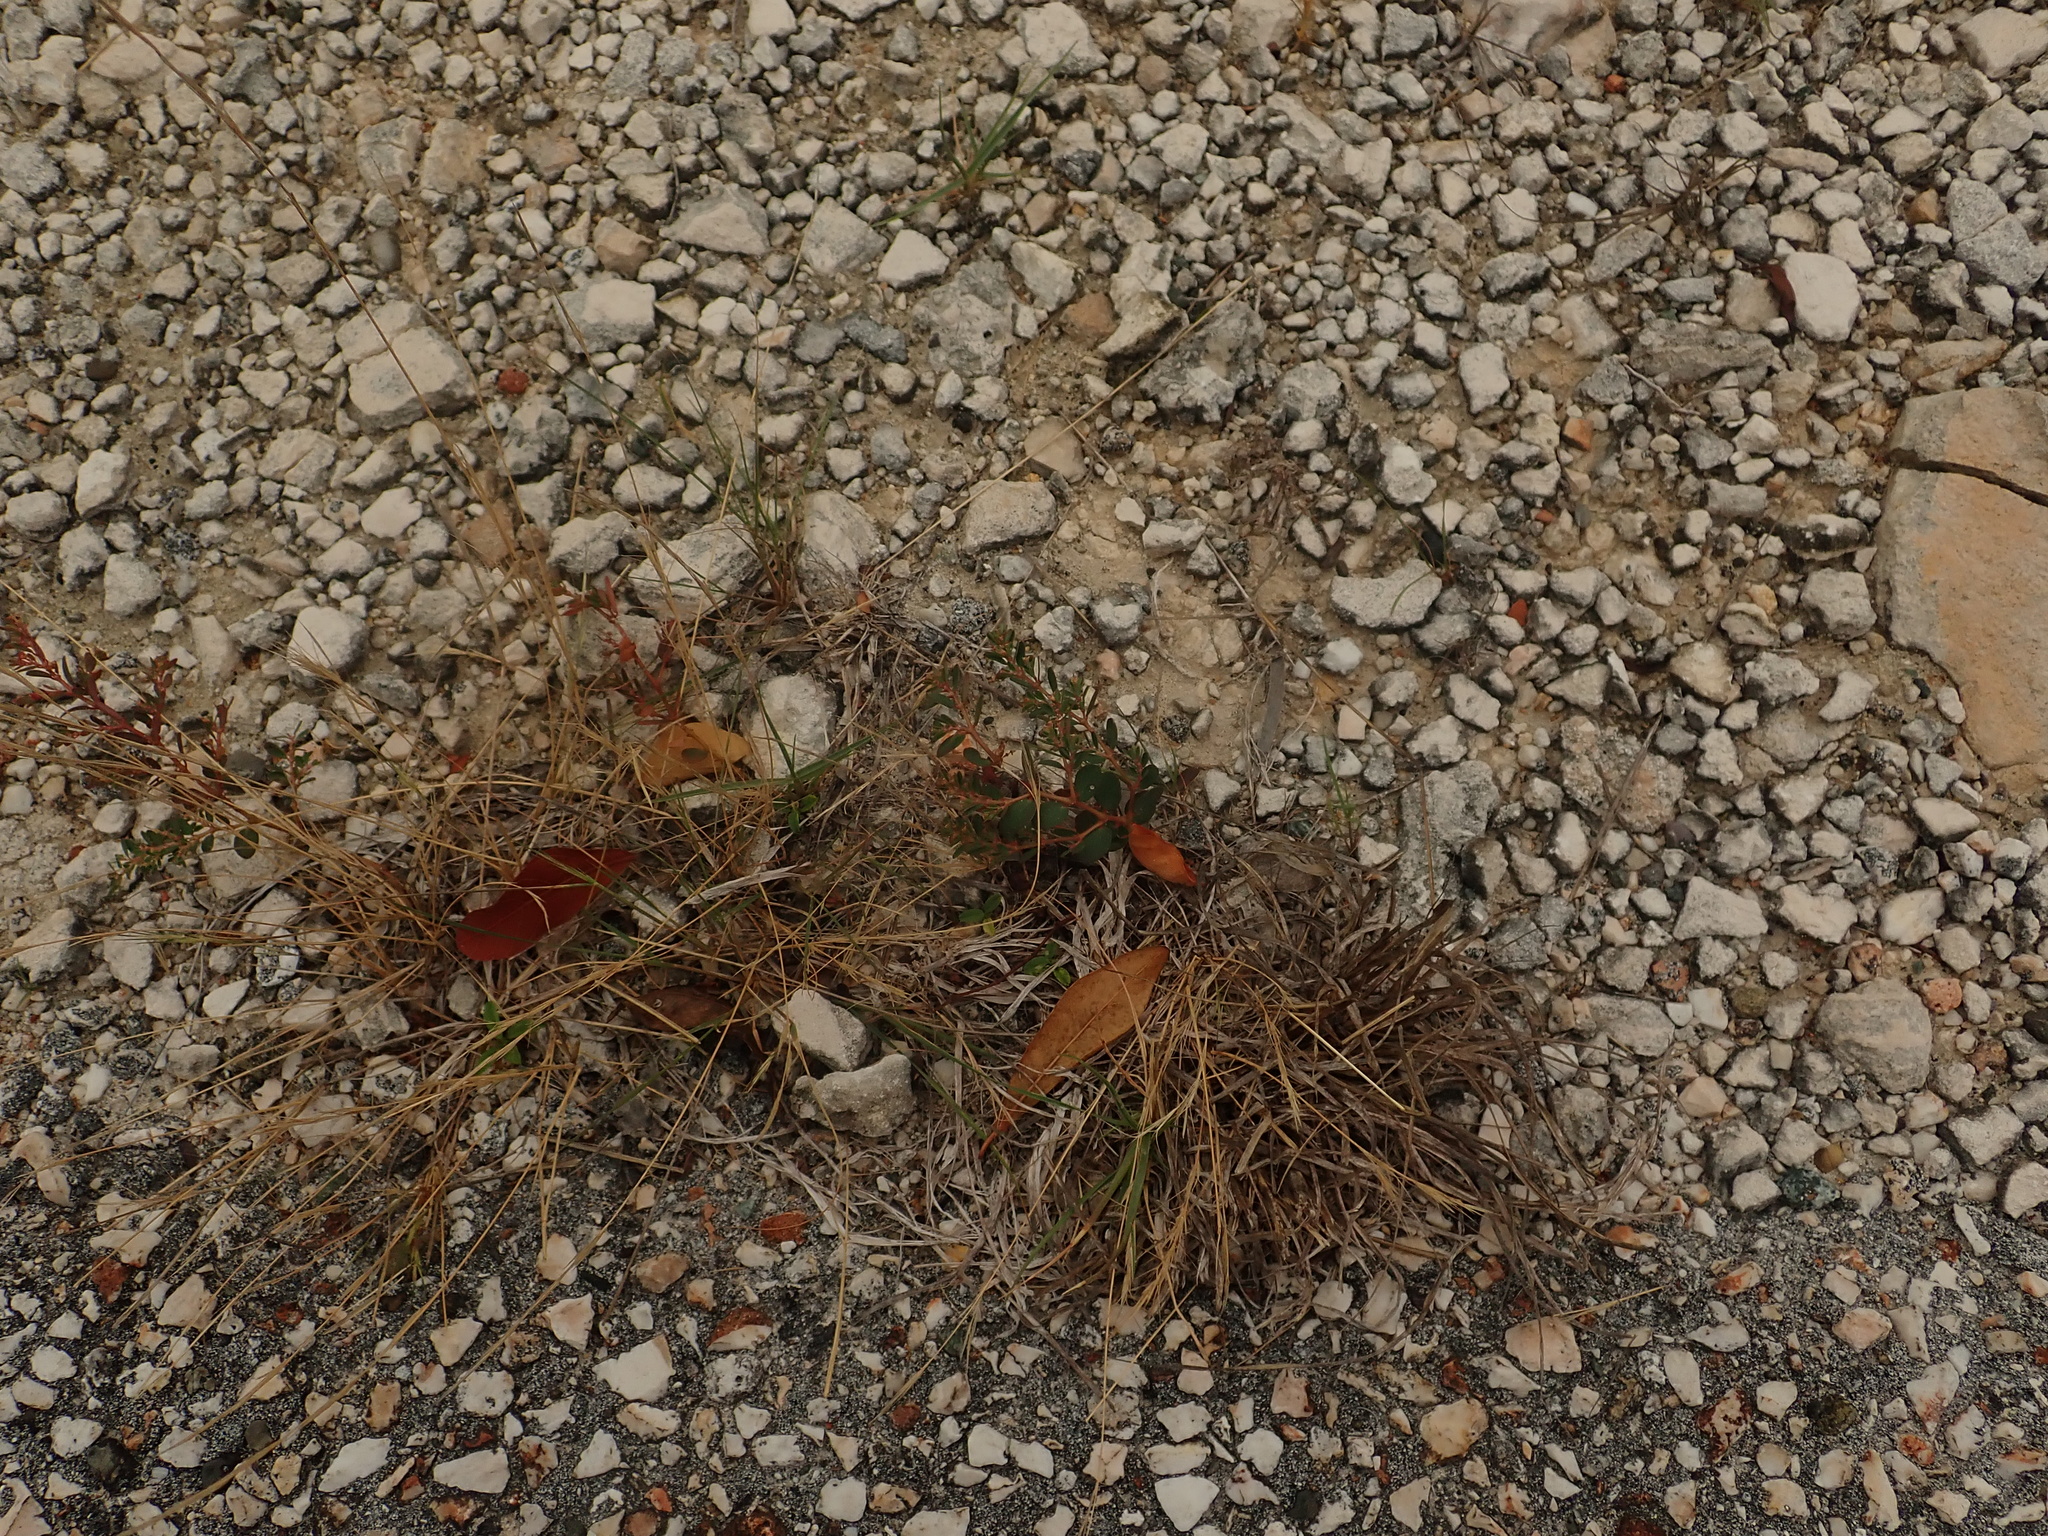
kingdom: Plantae
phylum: Tracheophyta
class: Magnoliopsida
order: Malpighiales
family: Euphorbiaceae
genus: Euphorbia
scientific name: Euphorbia blodgettii
